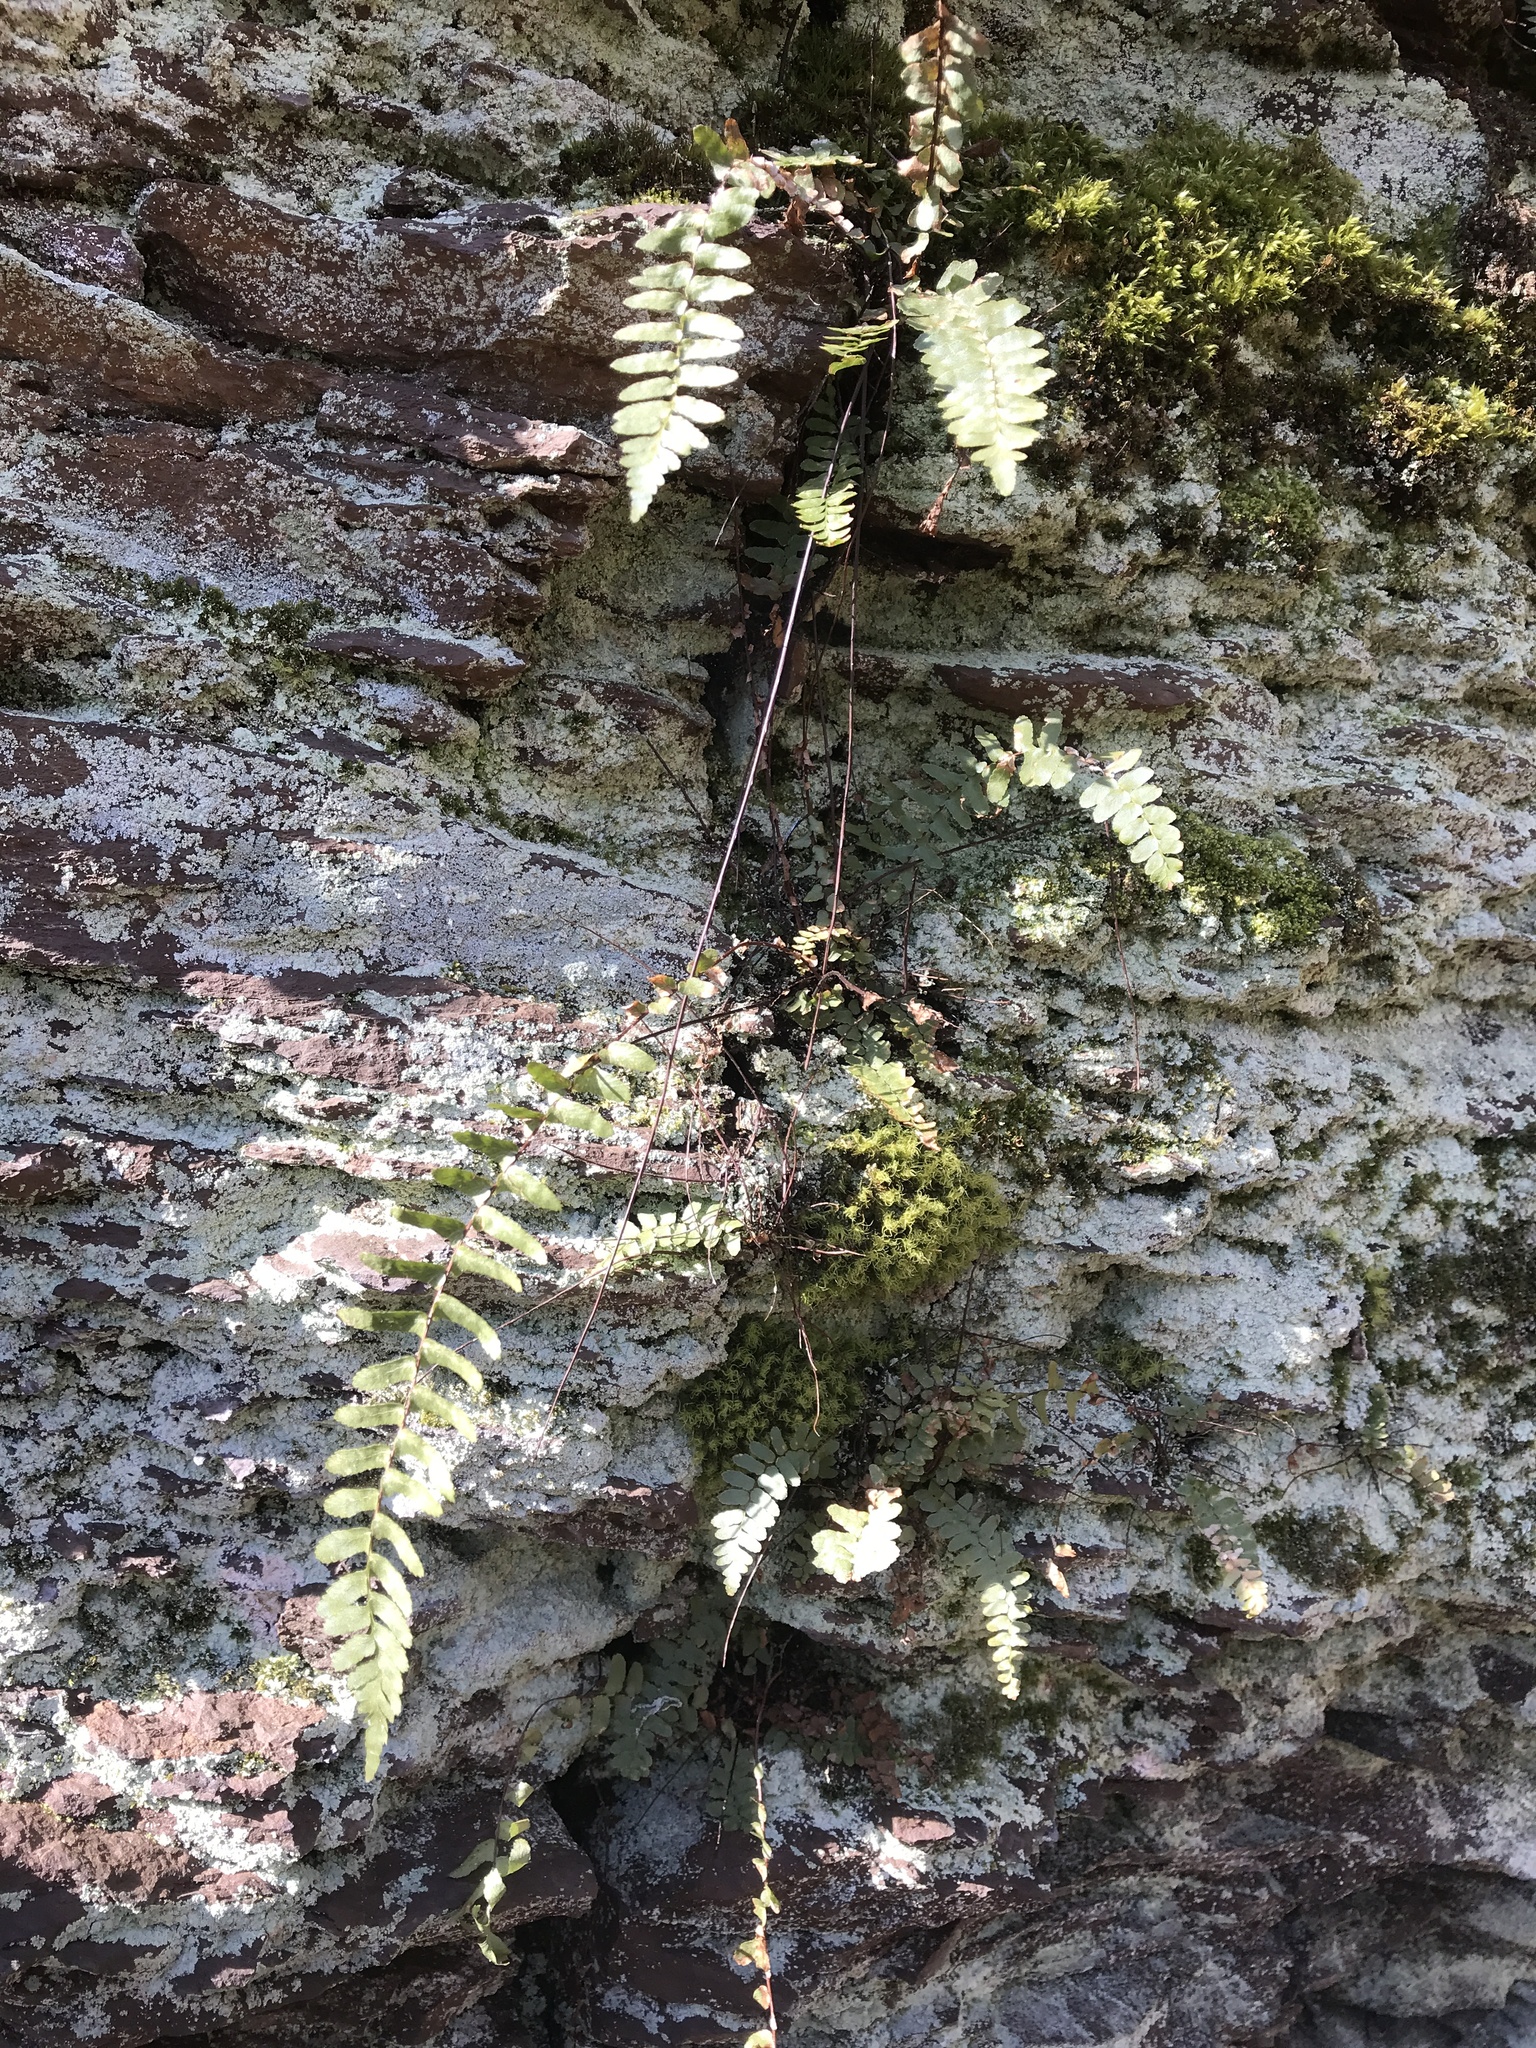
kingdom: Plantae
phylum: Tracheophyta
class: Polypodiopsida
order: Polypodiales
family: Aspleniaceae
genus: Asplenium
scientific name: Asplenium platyneuron
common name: Ebony spleenwort
